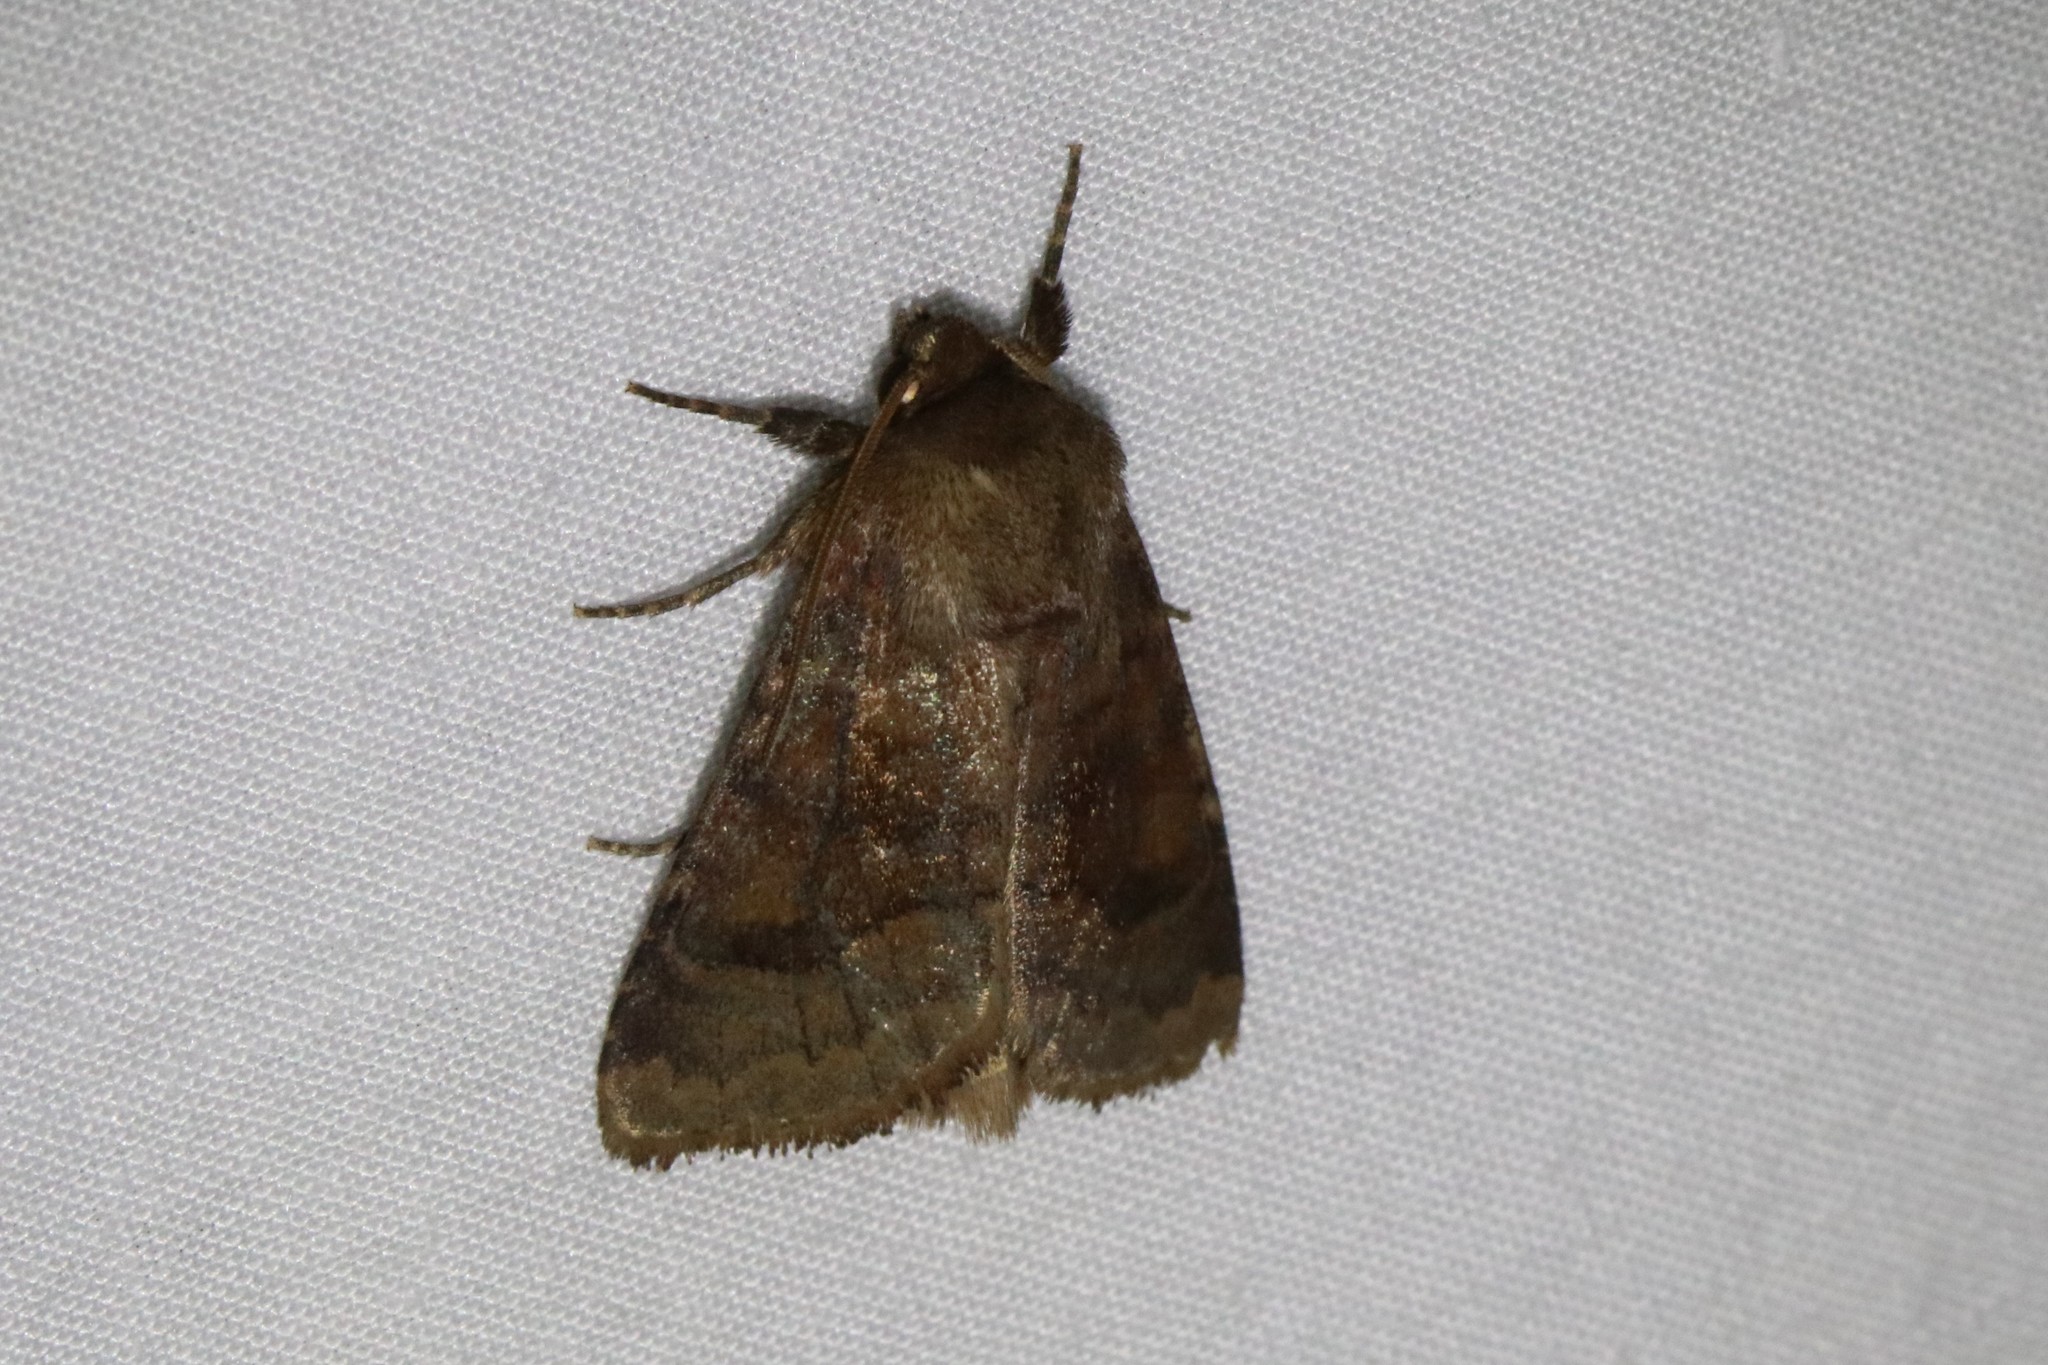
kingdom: Animalia
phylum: Arthropoda
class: Insecta
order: Lepidoptera
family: Noctuidae
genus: Nephelodes
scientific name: Nephelodes minians
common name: Bronzed cutworm
